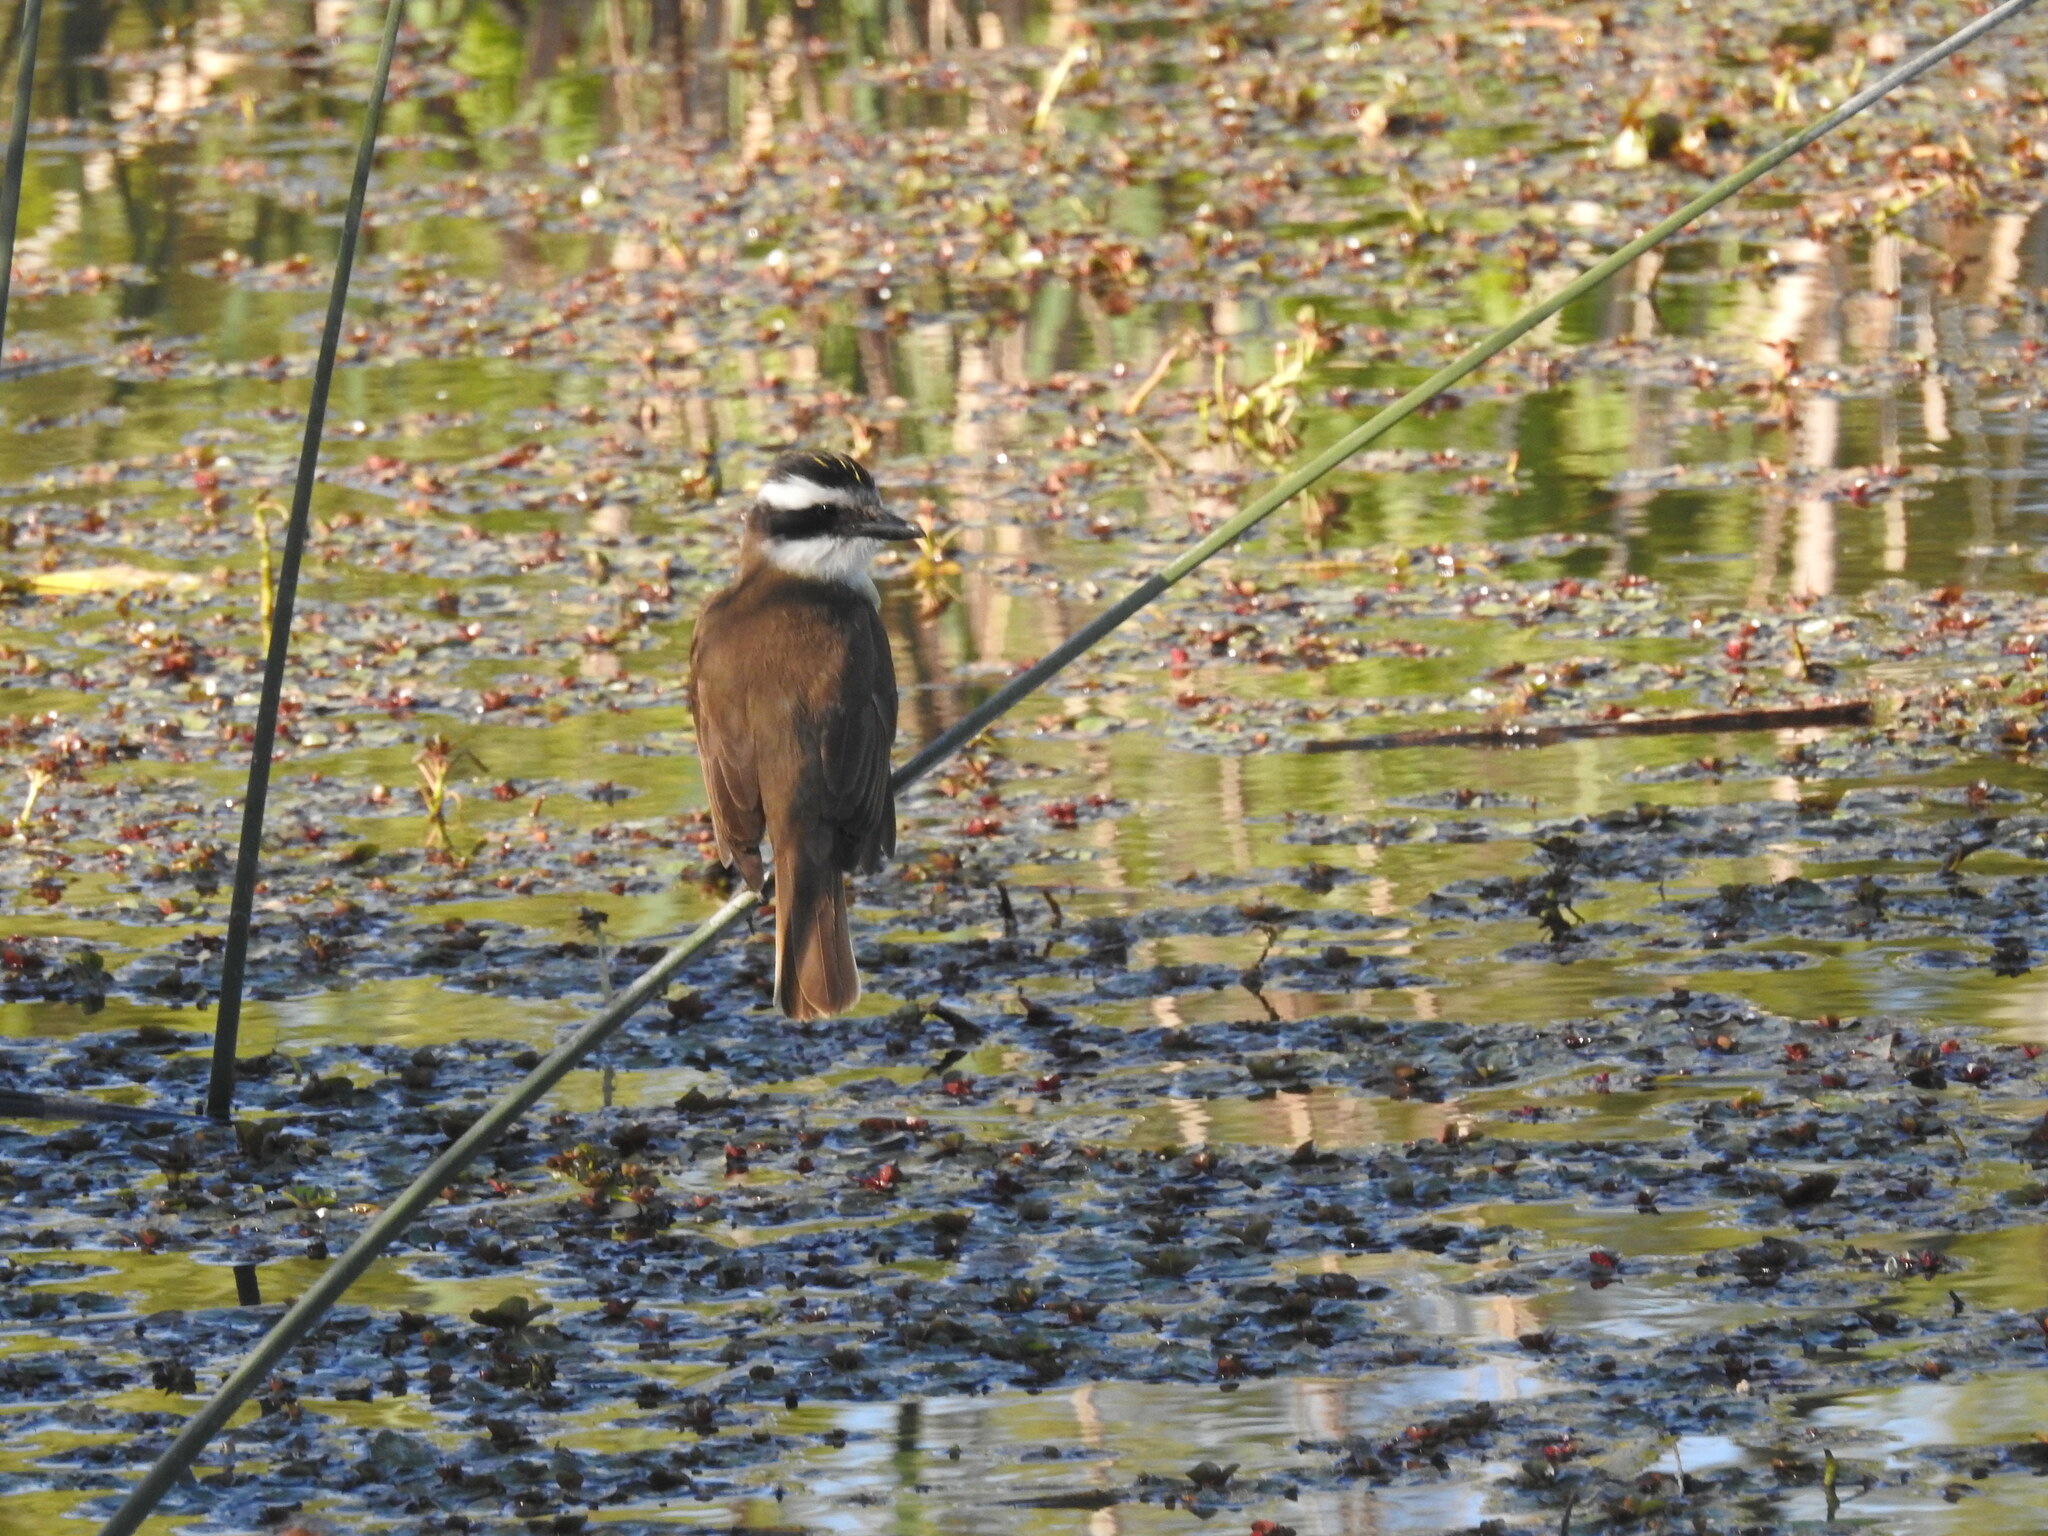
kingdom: Animalia
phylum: Chordata
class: Aves
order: Passeriformes
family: Tyrannidae
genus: Pitangus
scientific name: Pitangus sulphuratus
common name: Great kiskadee
